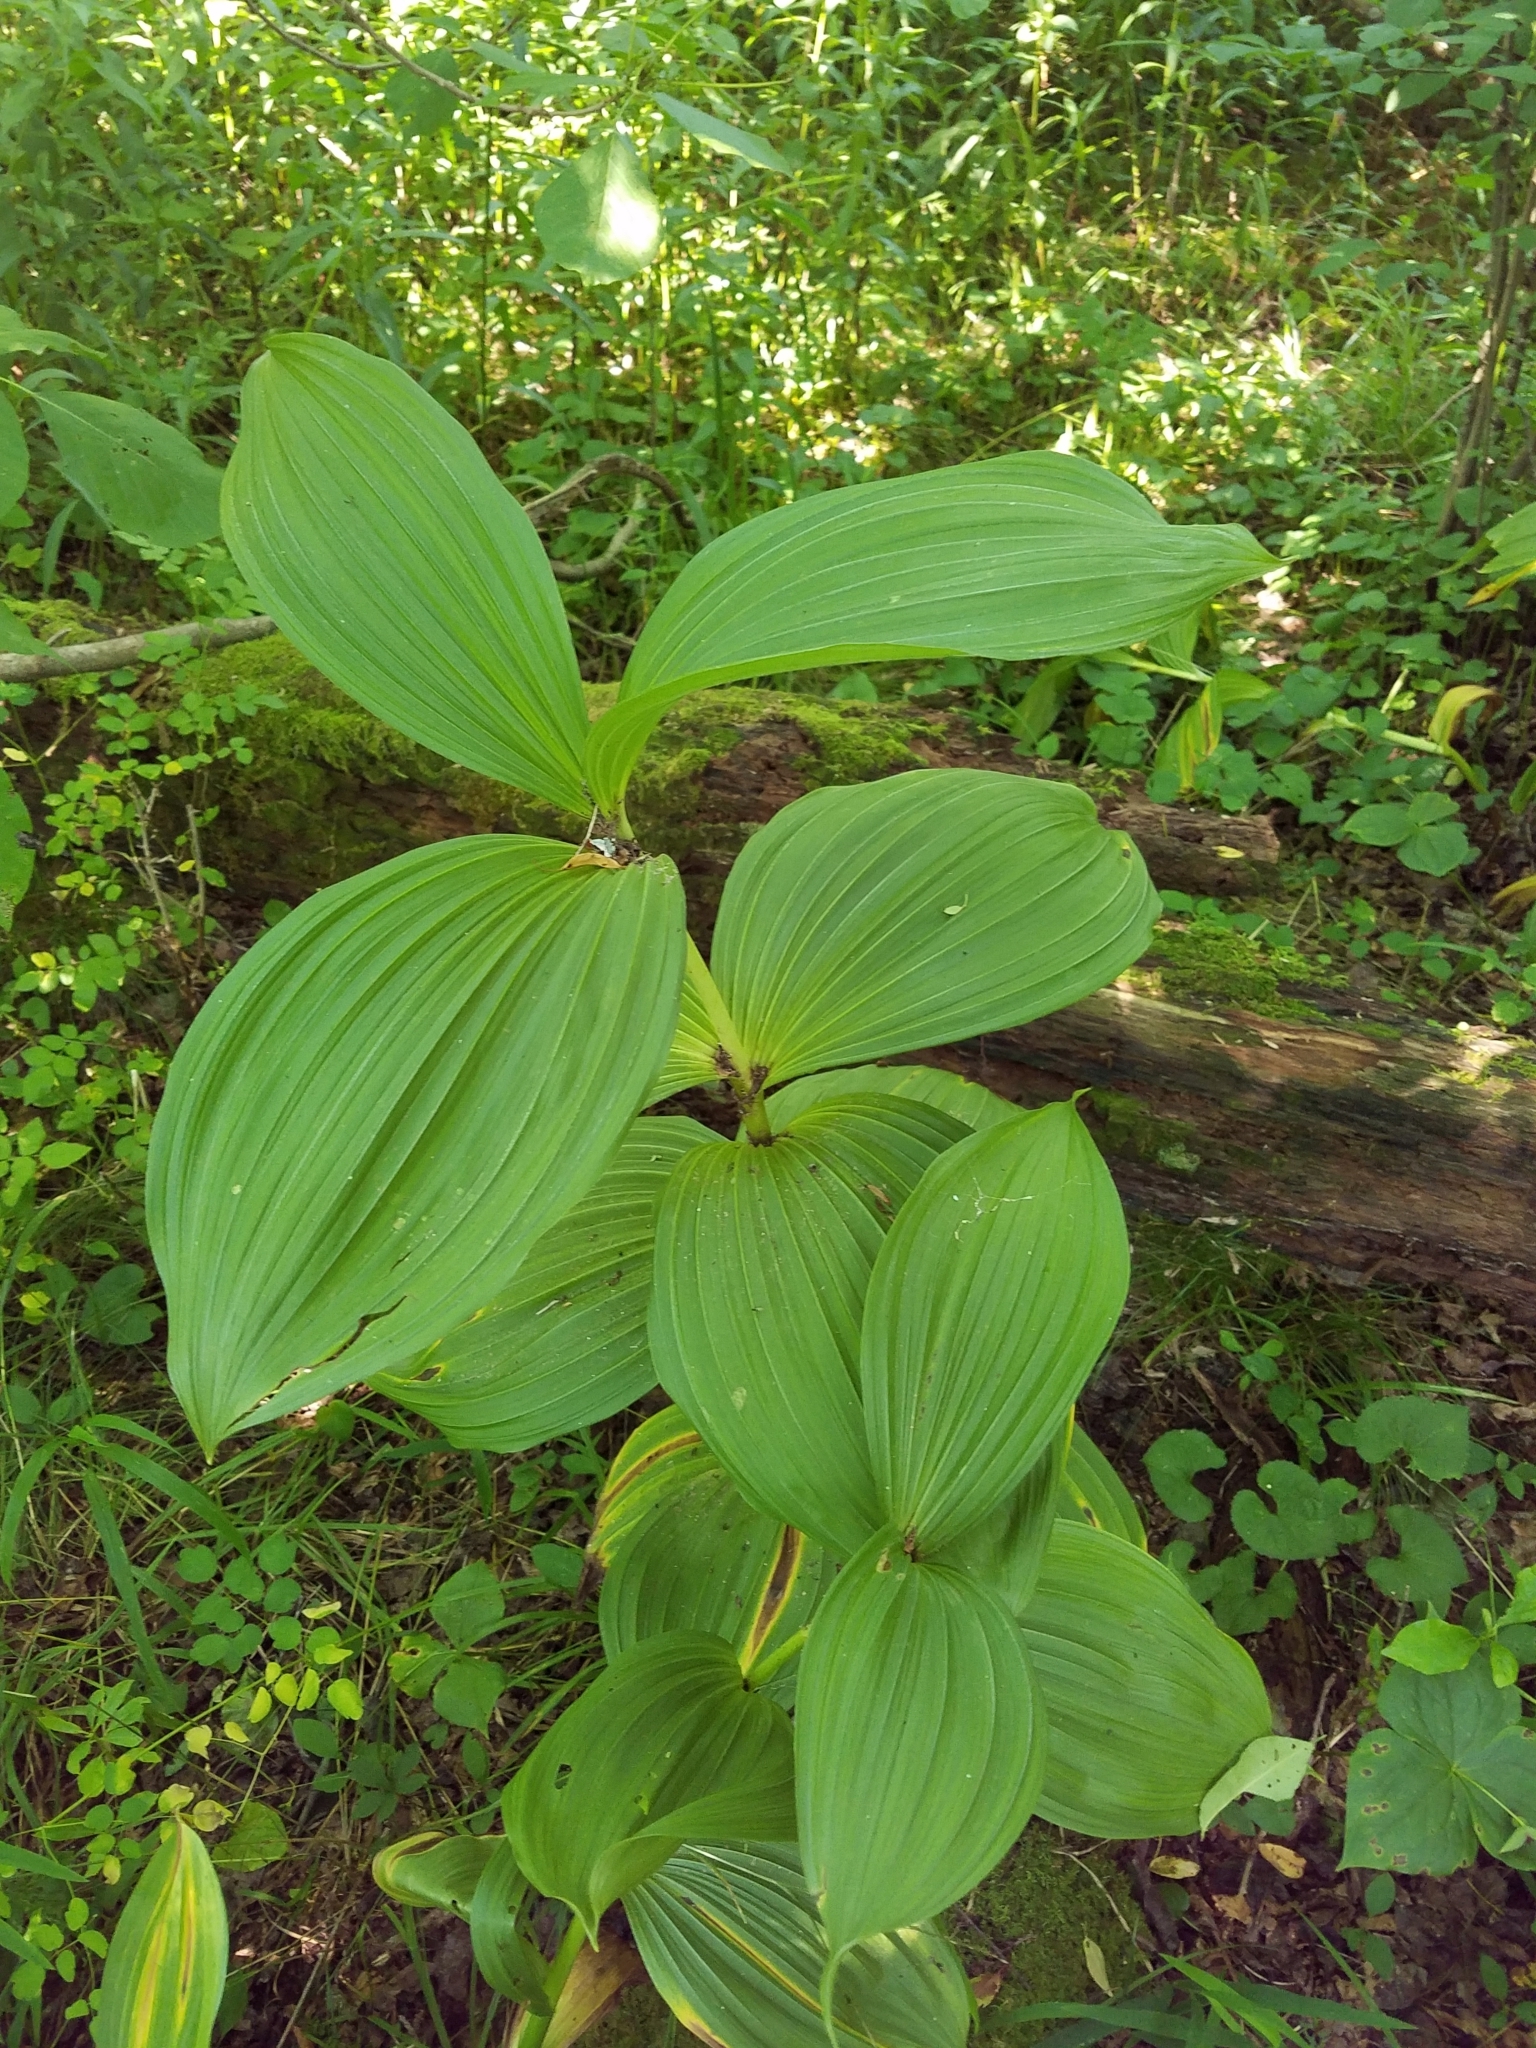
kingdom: Plantae
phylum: Tracheophyta
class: Liliopsida
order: Liliales
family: Melanthiaceae
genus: Veratrum
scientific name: Veratrum viride
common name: American false hellebore
